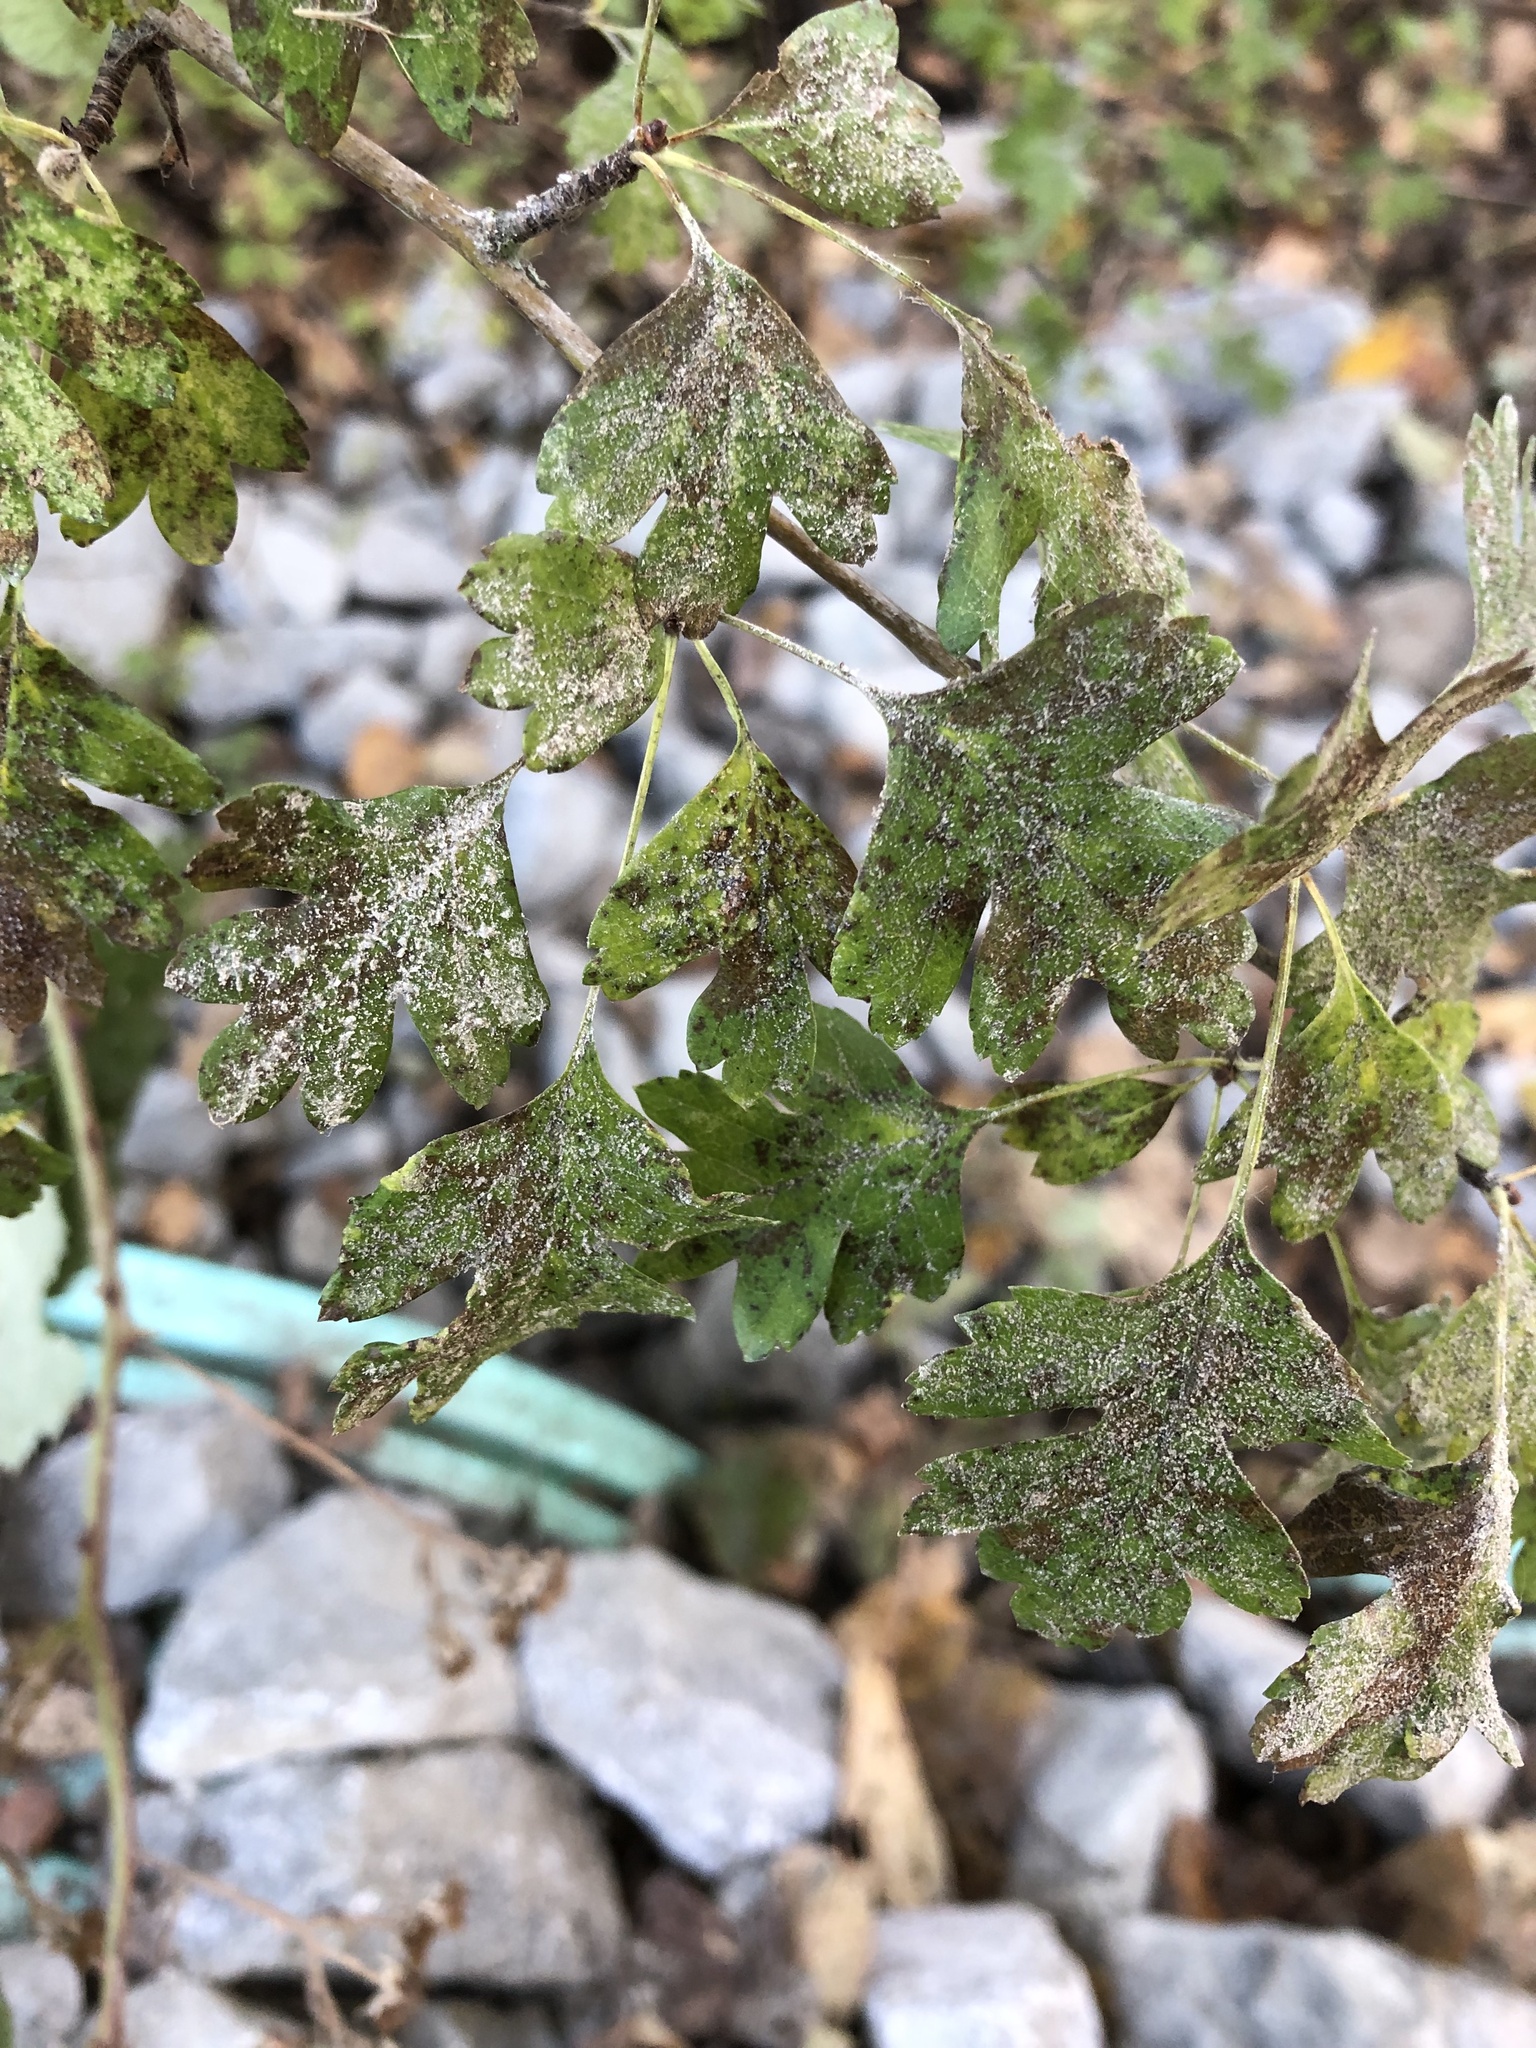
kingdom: Plantae
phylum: Tracheophyta
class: Magnoliopsida
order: Rosales
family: Rosaceae
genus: Crataegus
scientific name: Crataegus monogyna
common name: Hawthorn
